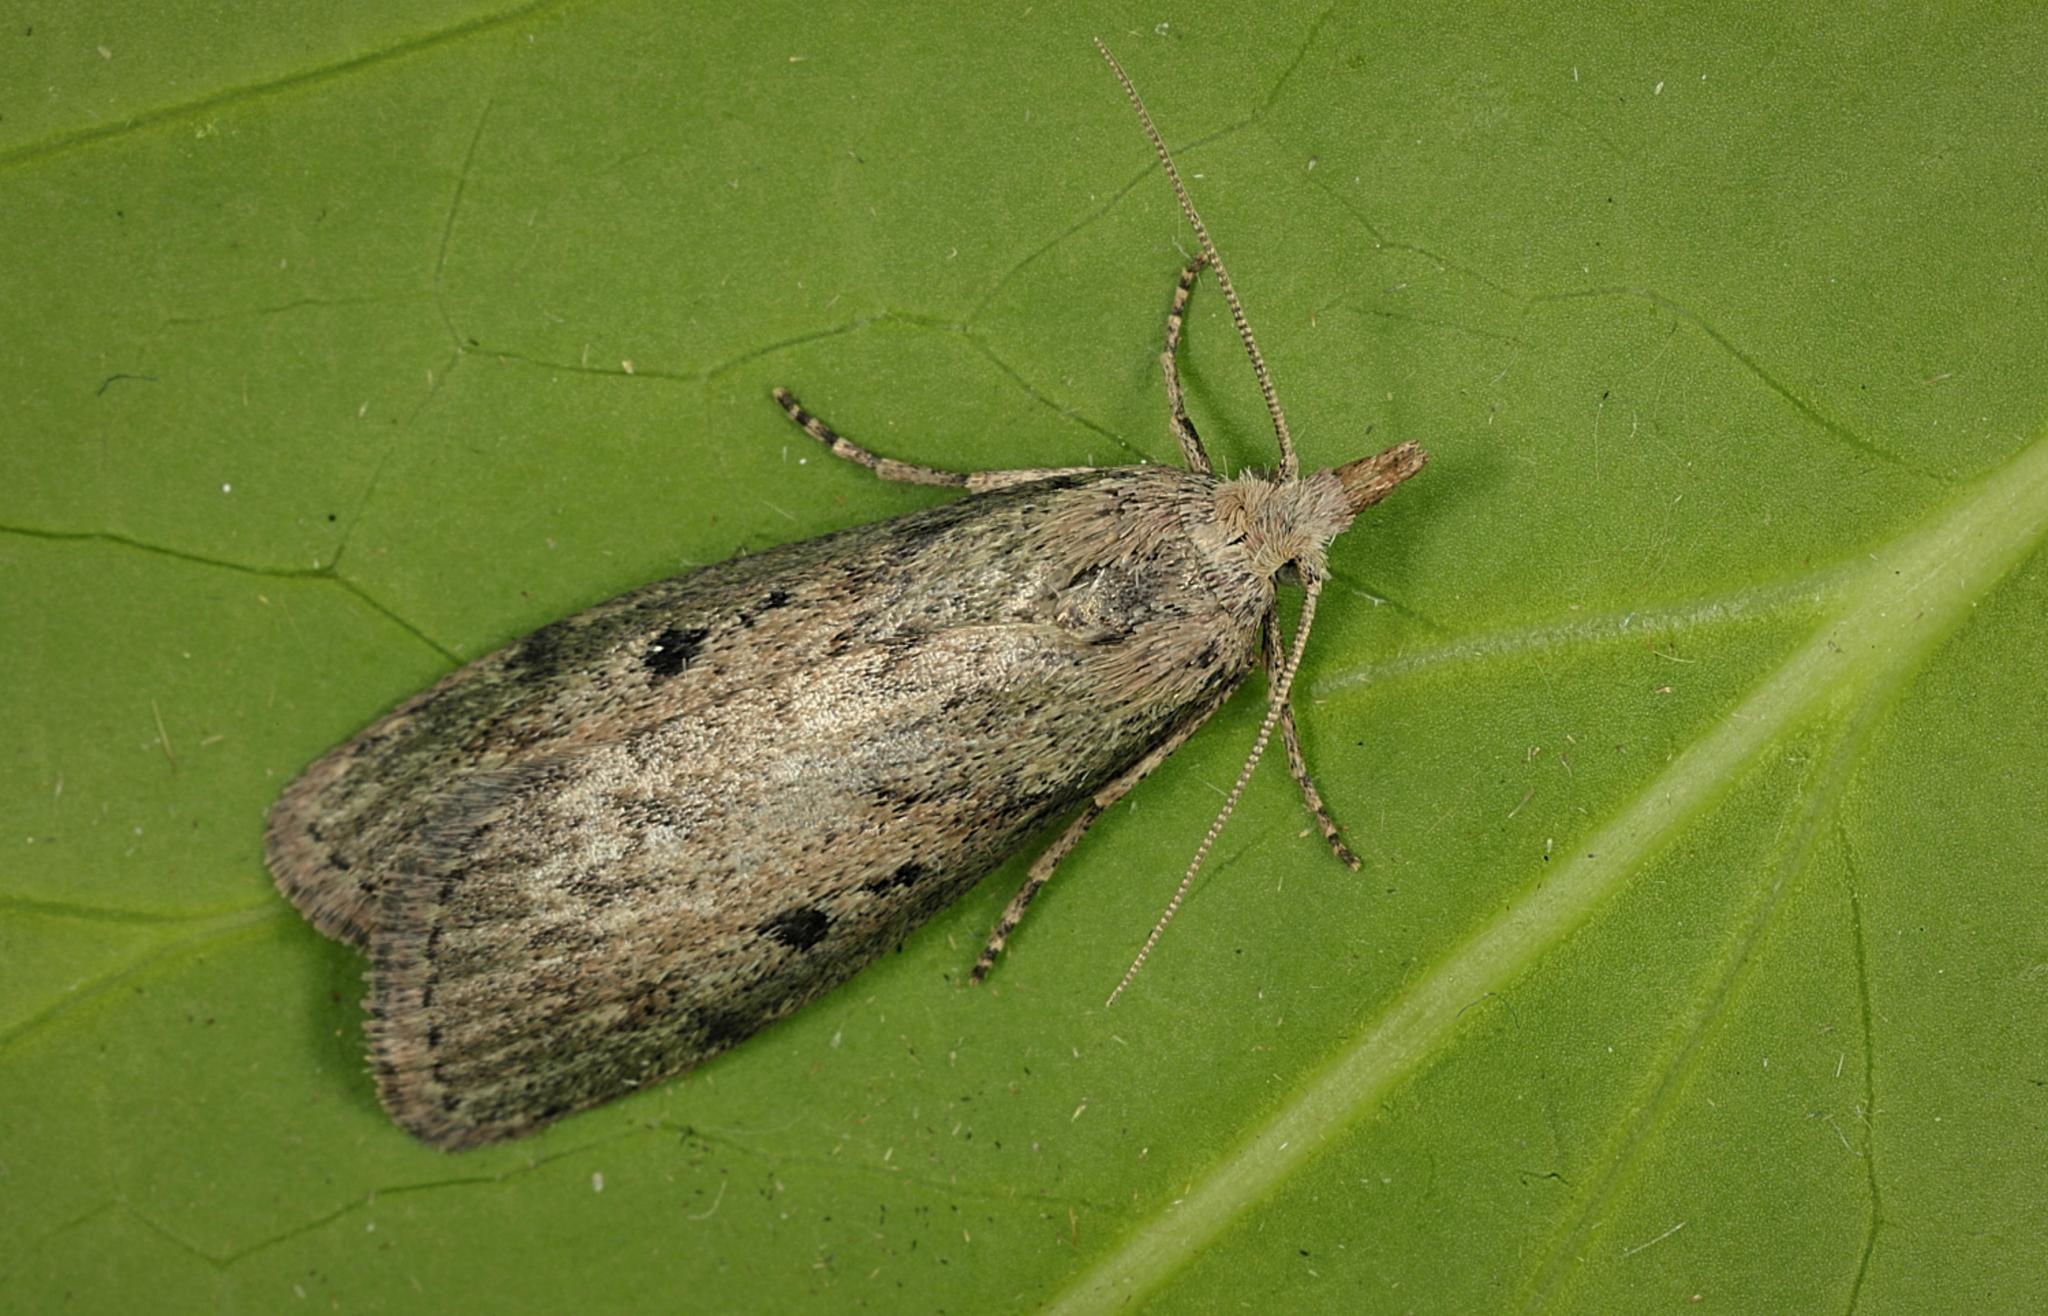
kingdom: Animalia
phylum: Arthropoda
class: Insecta
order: Lepidoptera
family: Pyralidae
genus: Aphomia
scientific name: Aphomia sociella
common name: Bee moth
